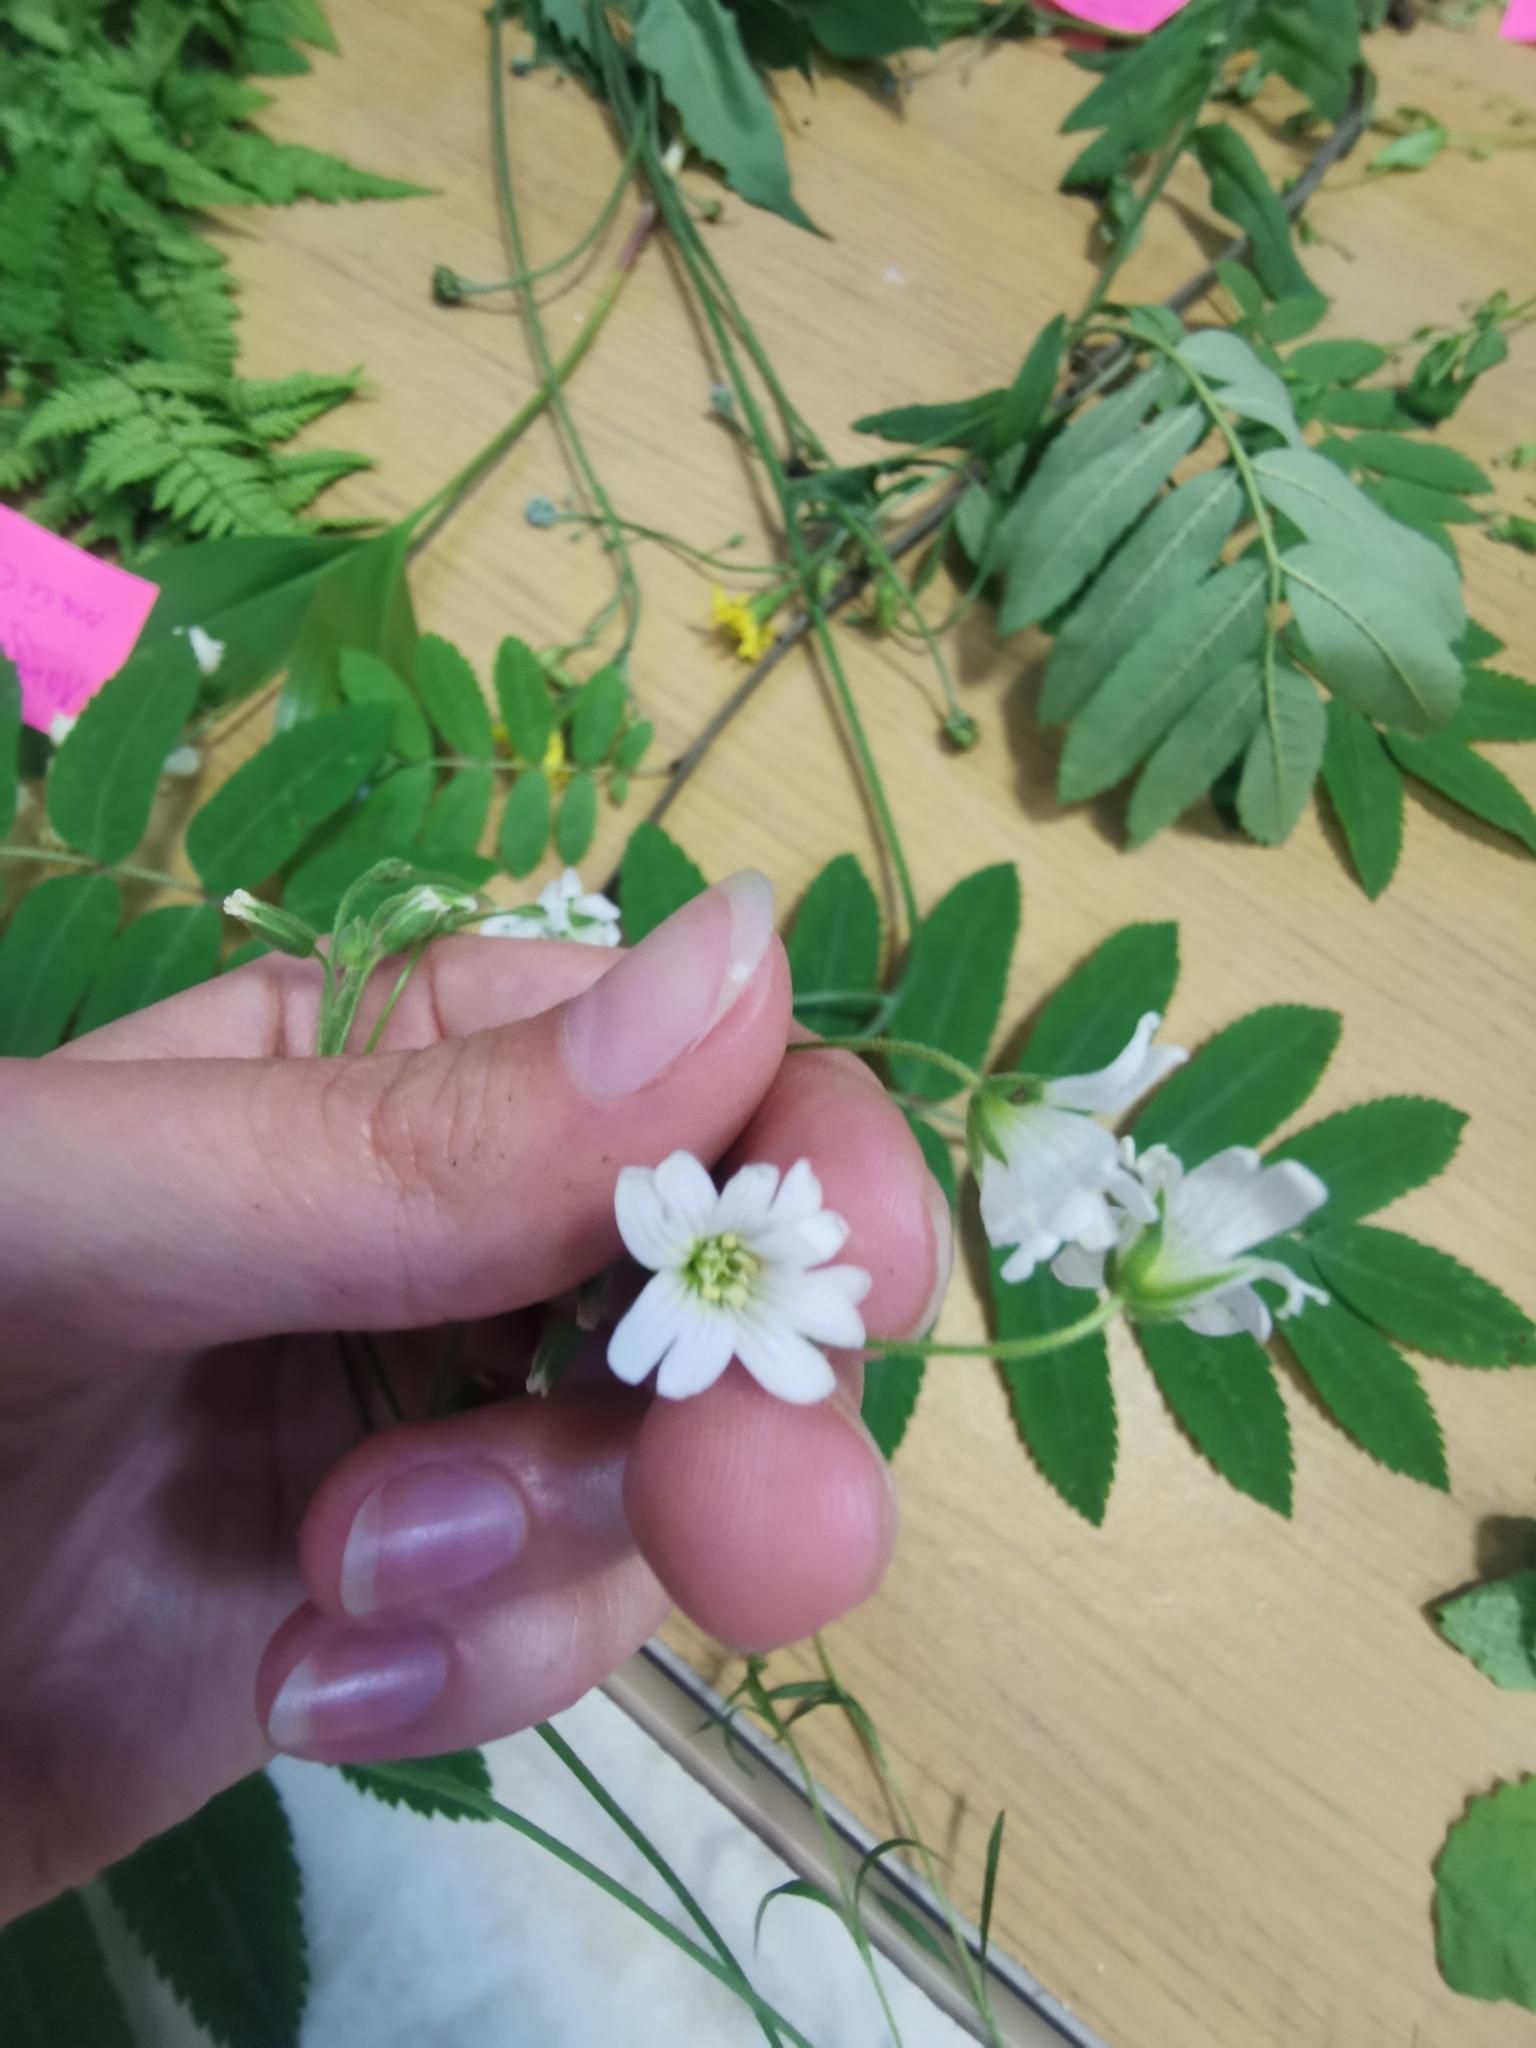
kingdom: Plantae
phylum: Tracheophyta
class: Magnoliopsida
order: Caryophyllales
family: Caryophyllaceae
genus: Cerastium
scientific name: Cerastium arvense
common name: Field mouse-ear
